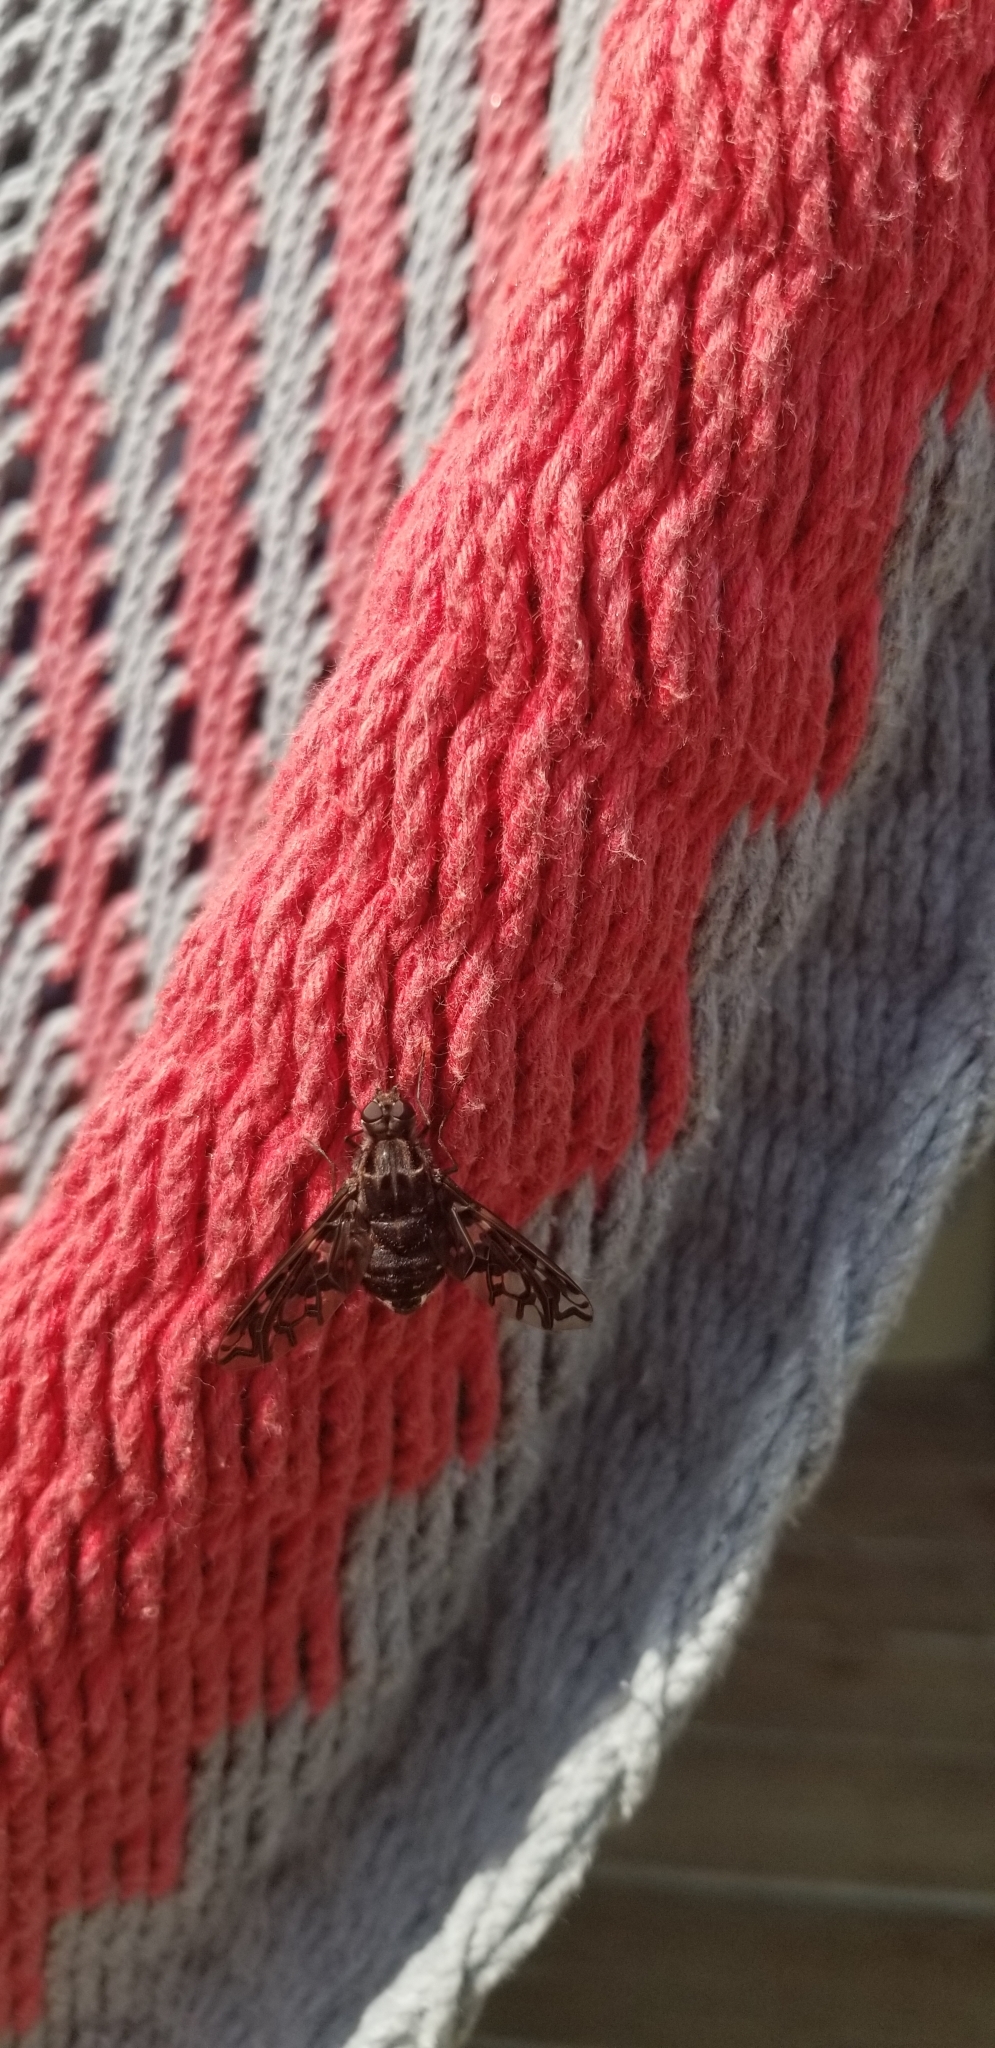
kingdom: Animalia
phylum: Arthropoda
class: Insecta
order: Diptera
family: Bombyliidae
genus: Xenox
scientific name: Xenox tigrinus
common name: Tiger bee fly
